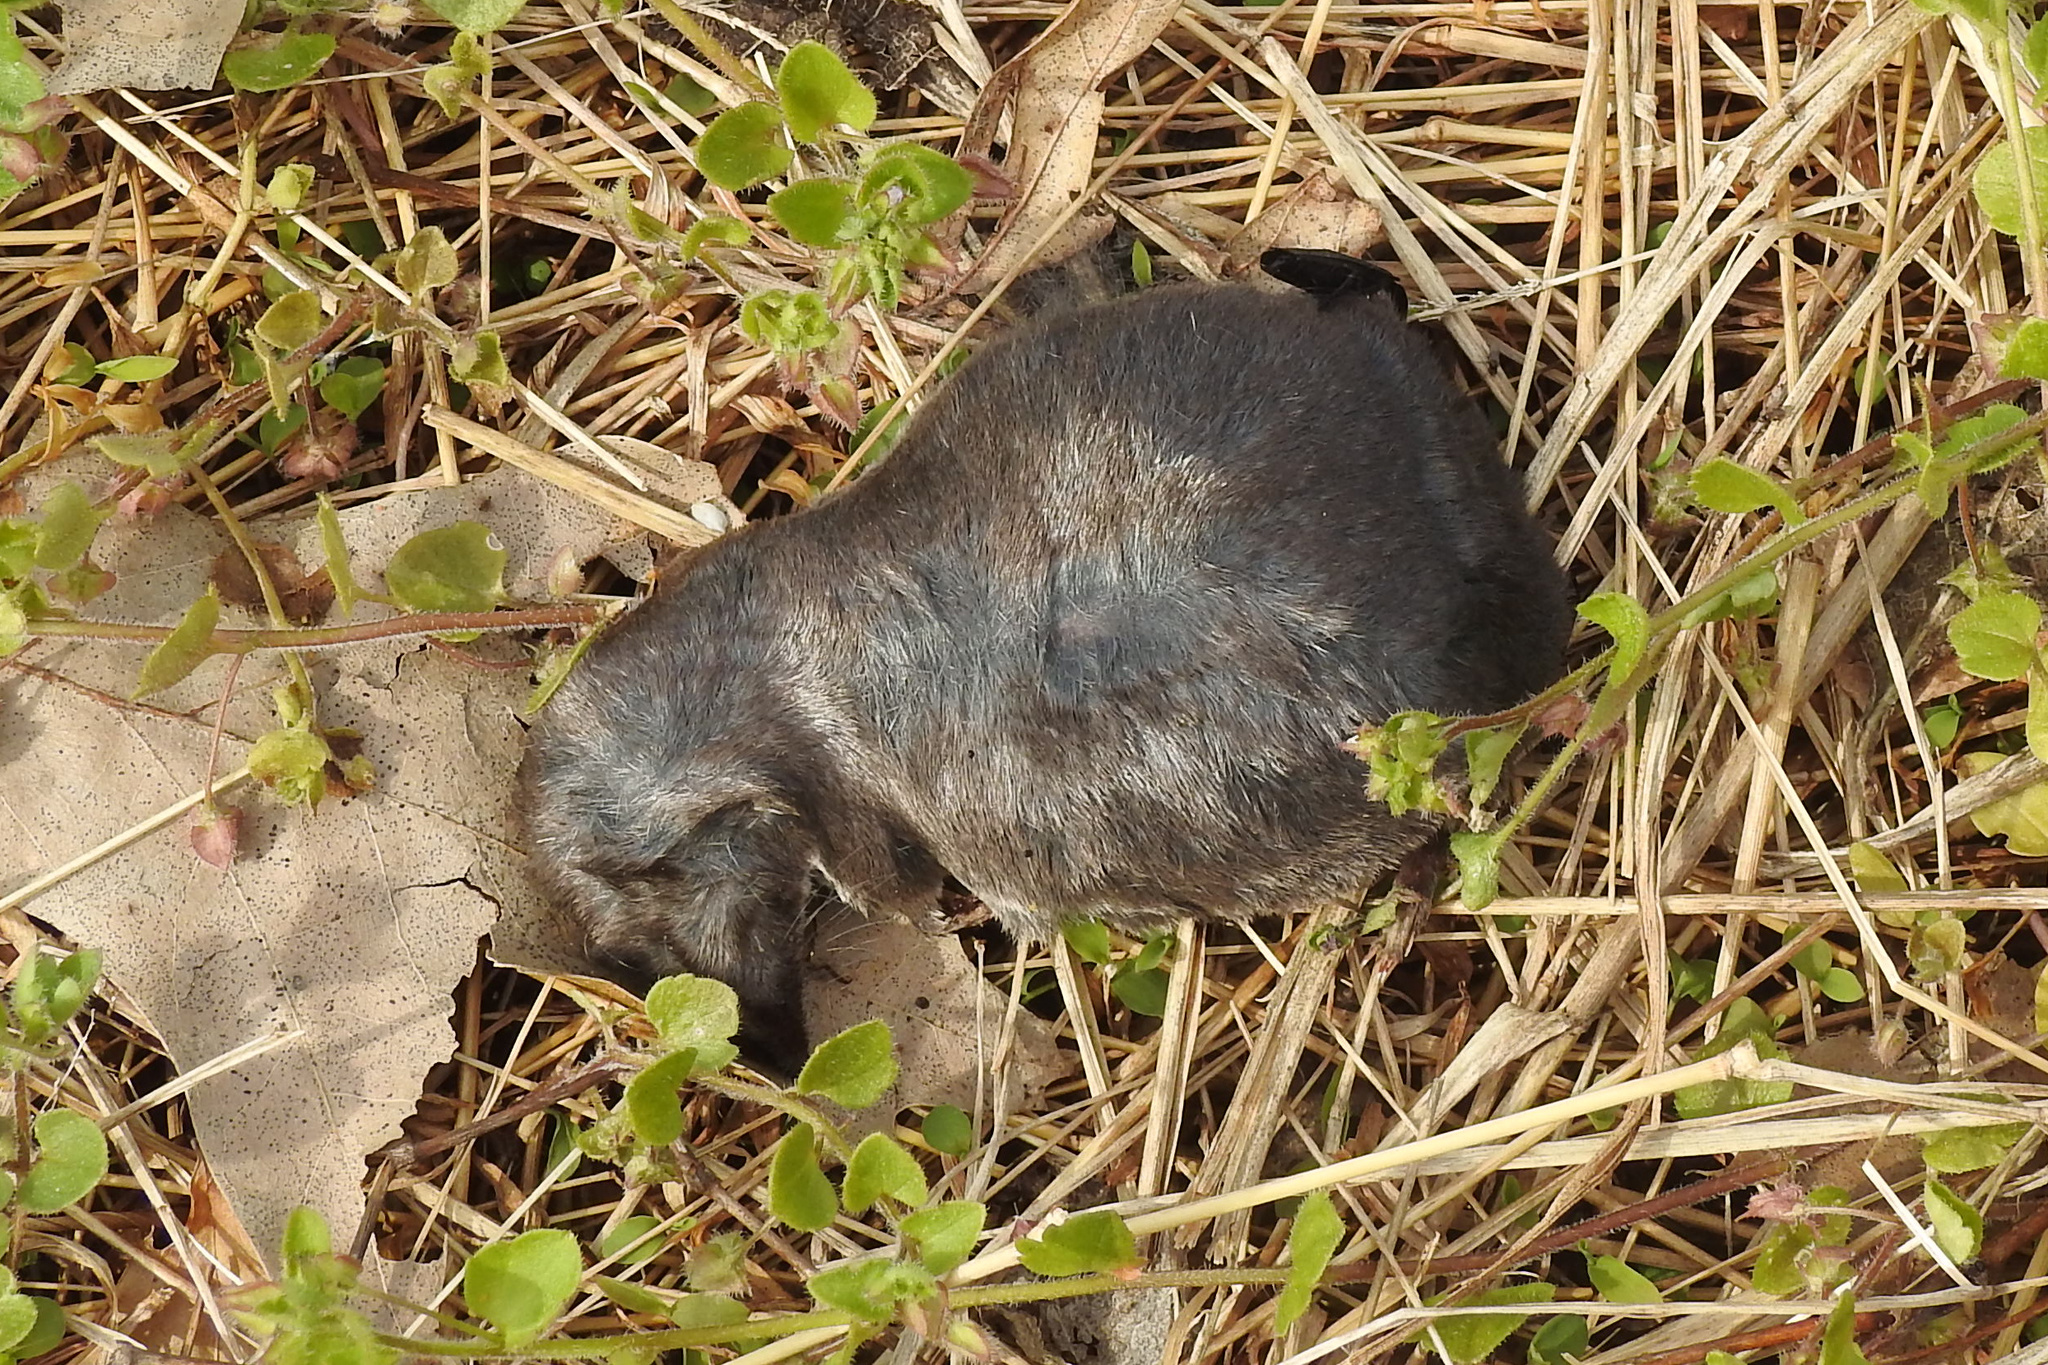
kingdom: Animalia
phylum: Chordata
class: Mammalia
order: Soricomorpha
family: Soricidae
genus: Blarina
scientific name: Blarina brevicauda
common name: Northern short-tailed shrew
